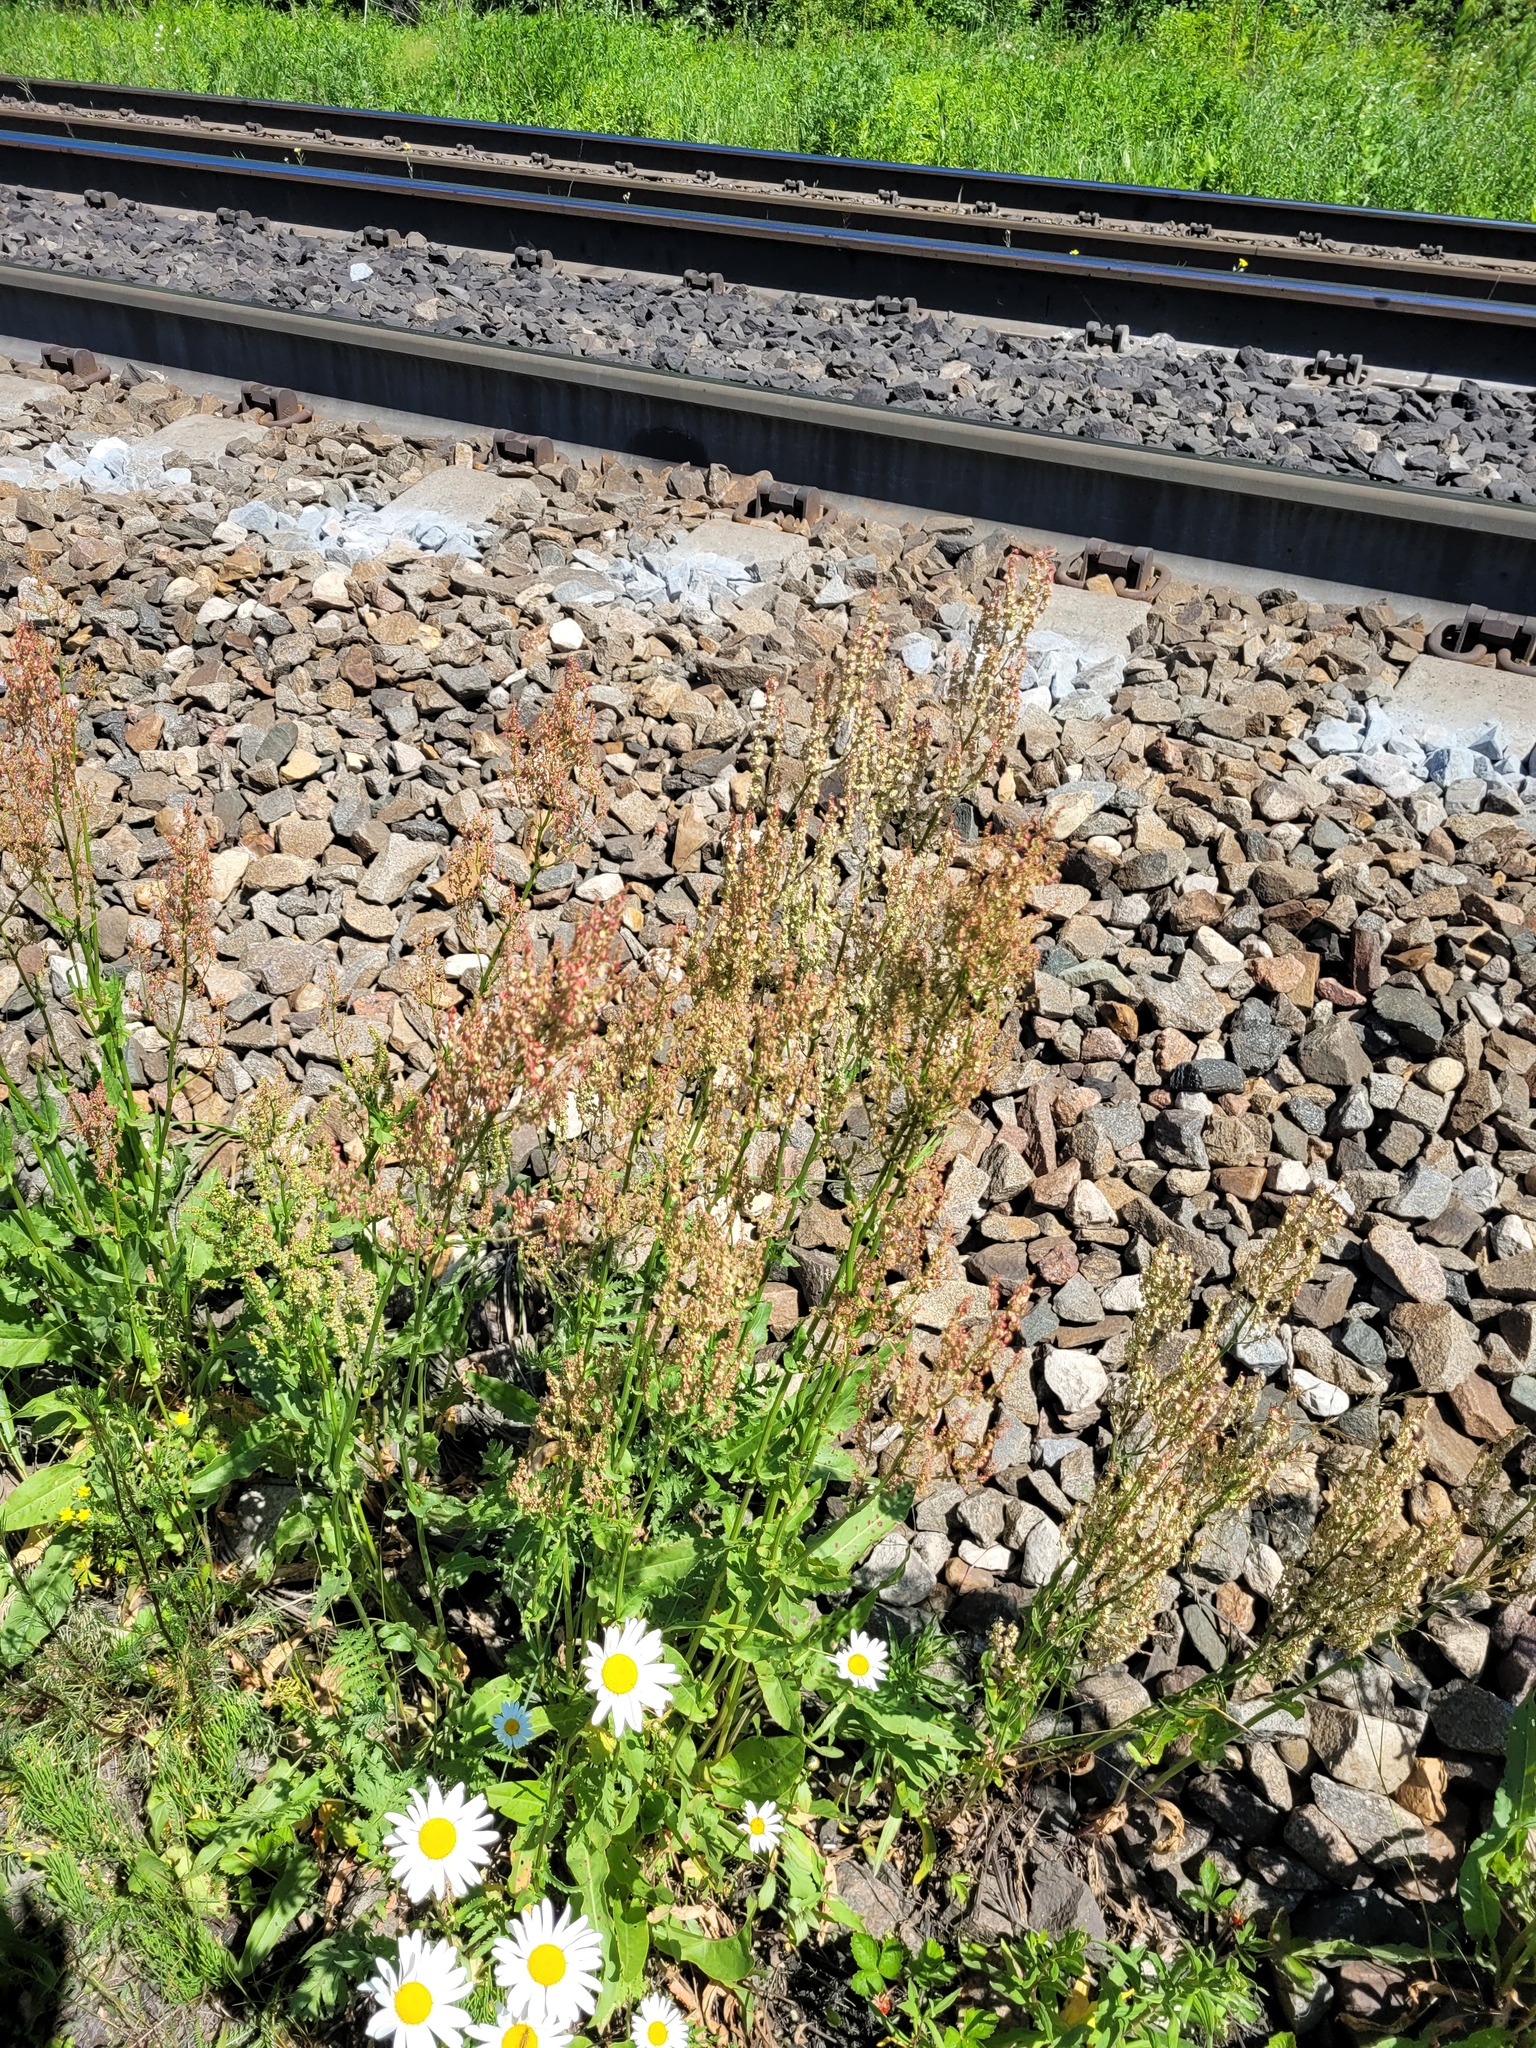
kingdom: Plantae
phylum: Tracheophyta
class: Magnoliopsida
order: Caryophyllales
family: Polygonaceae
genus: Rumex
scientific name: Rumex thyrsiflorus
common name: Garden sorrel
